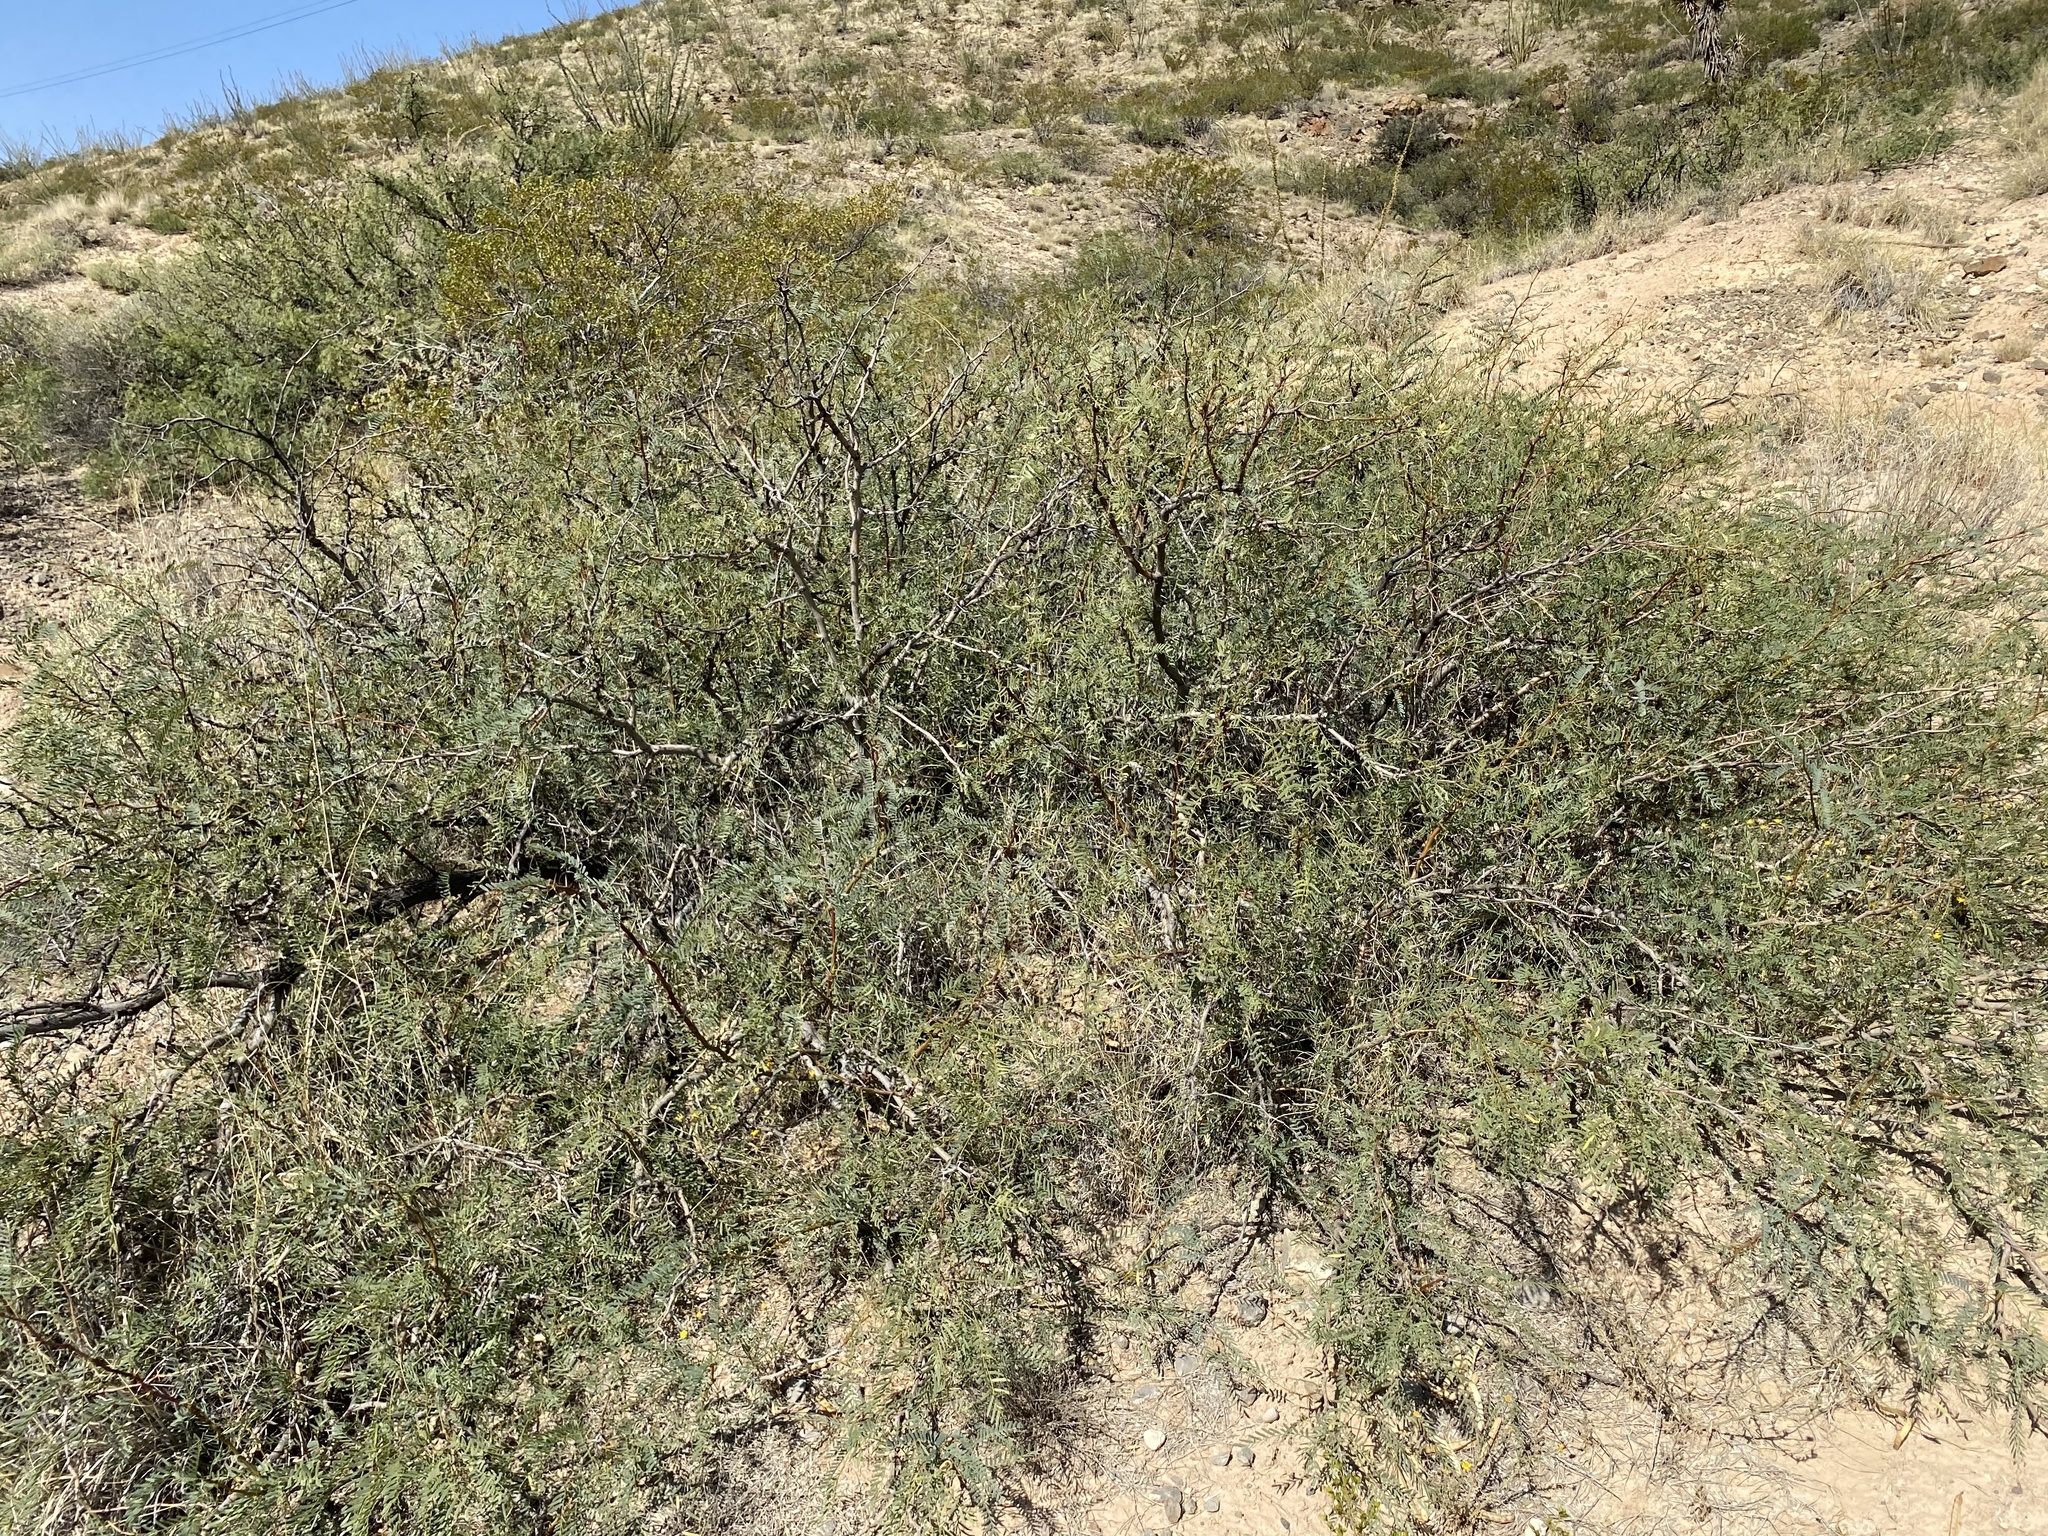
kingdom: Plantae
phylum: Tracheophyta
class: Magnoliopsida
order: Fabales
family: Fabaceae
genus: Prosopis
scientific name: Prosopis glandulosa
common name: Honey mesquite
